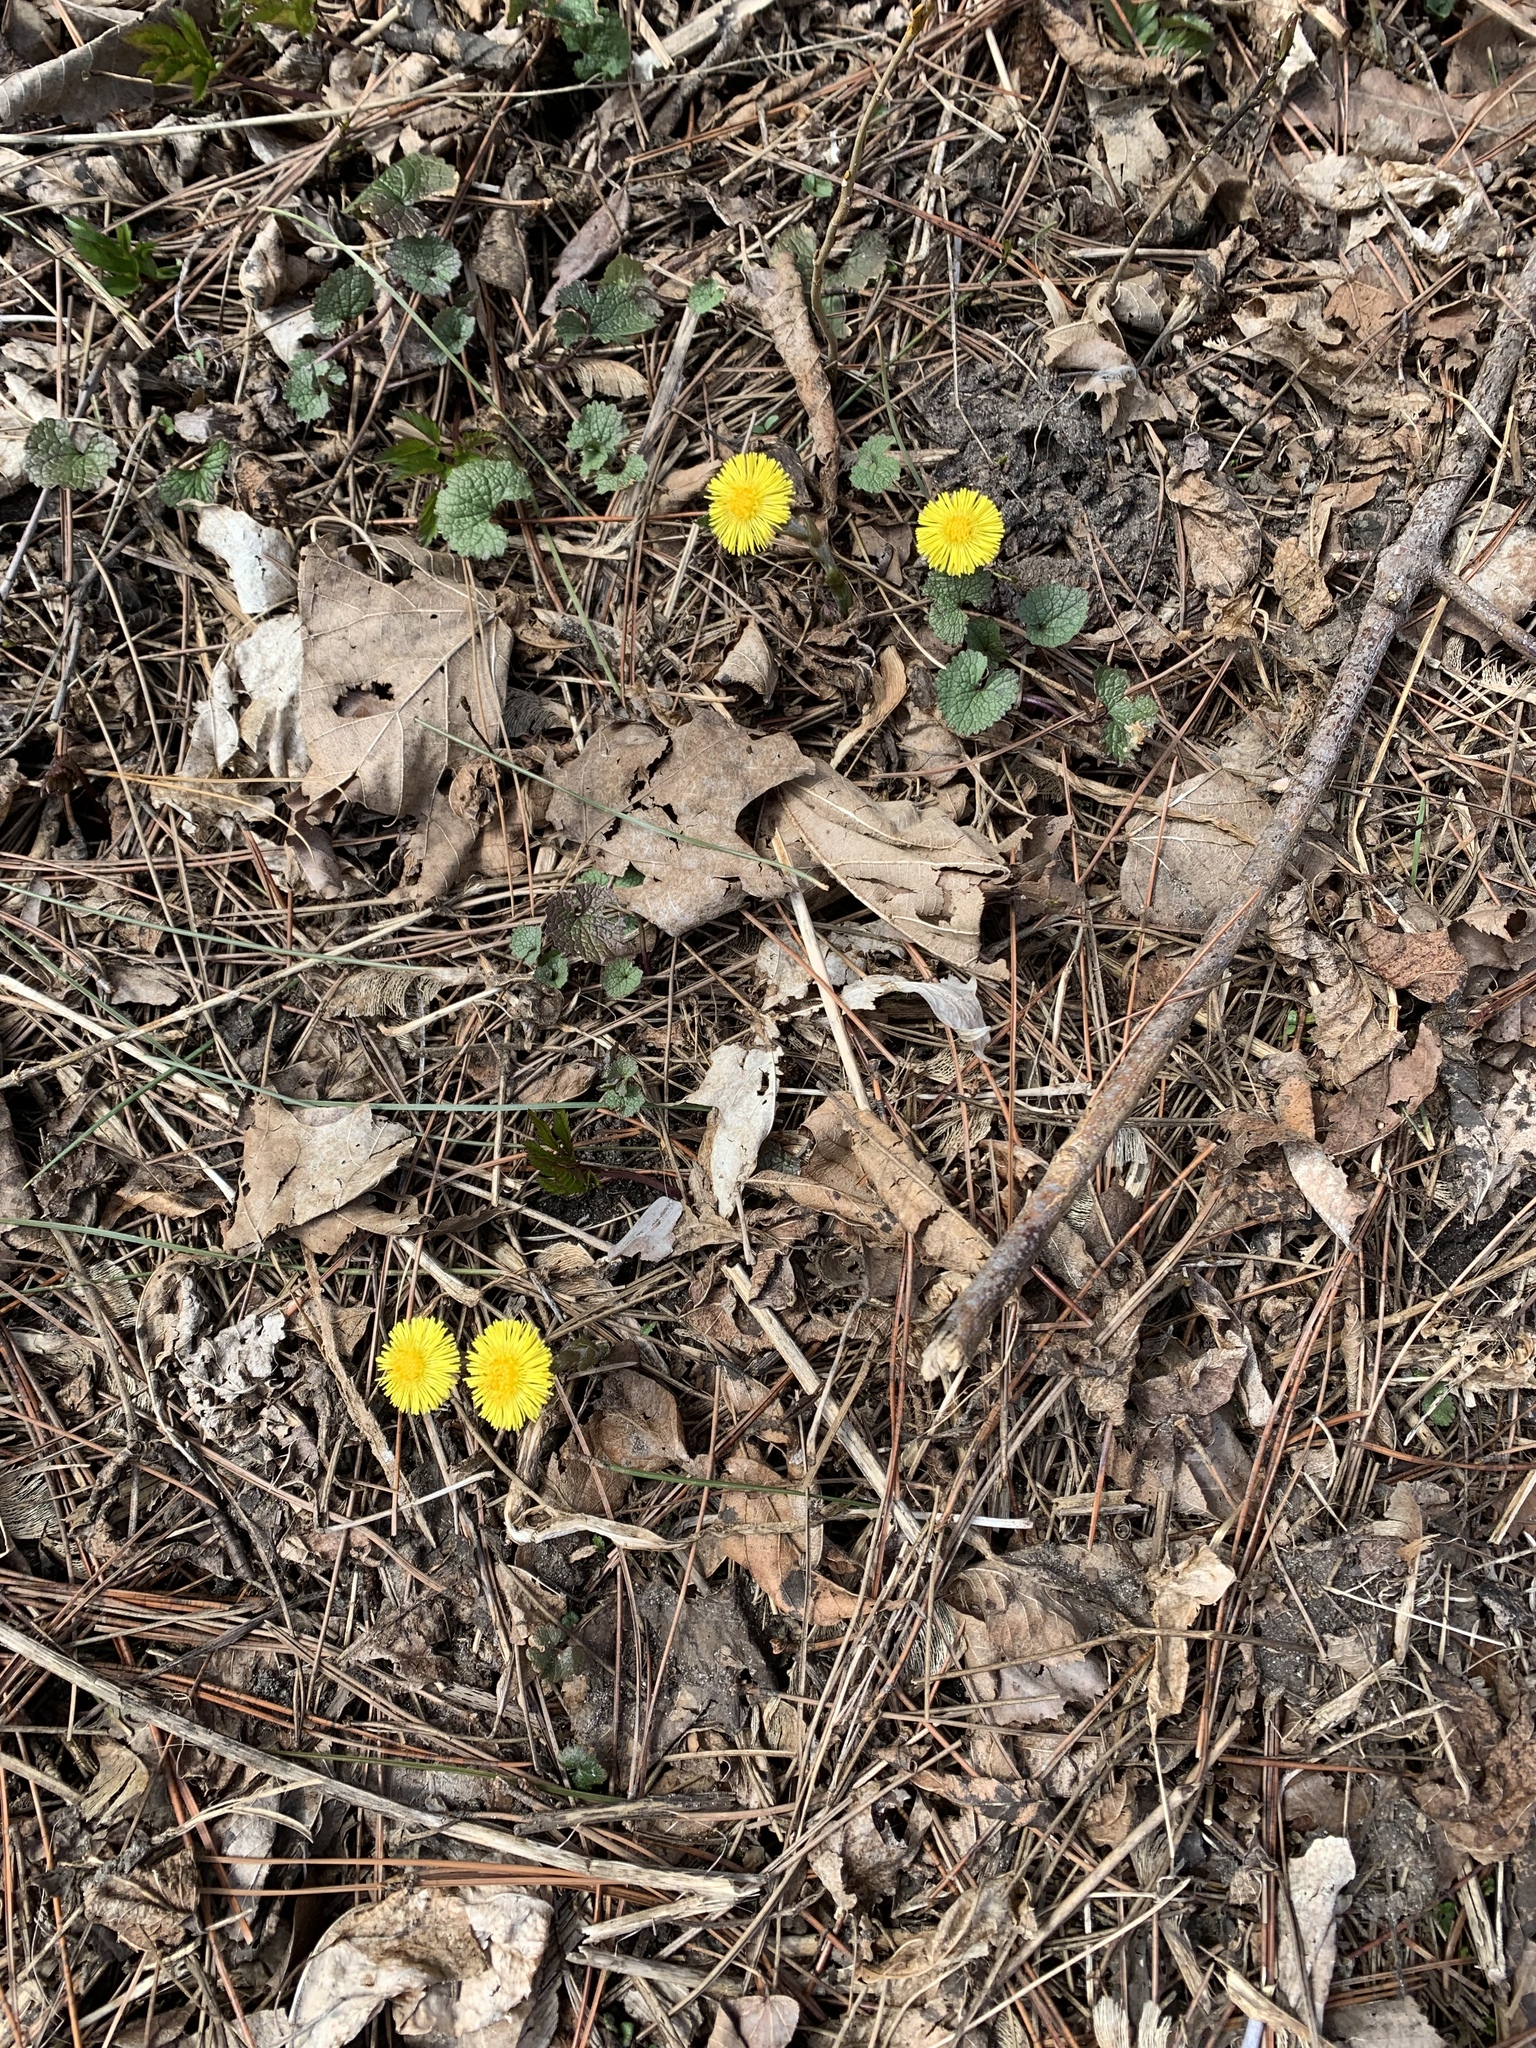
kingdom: Plantae
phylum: Tracheophyta
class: Magnoliopsida
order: Asterales
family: Asteraceae
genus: Tussilago
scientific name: Tussilago farfara
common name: Coltsfoot
